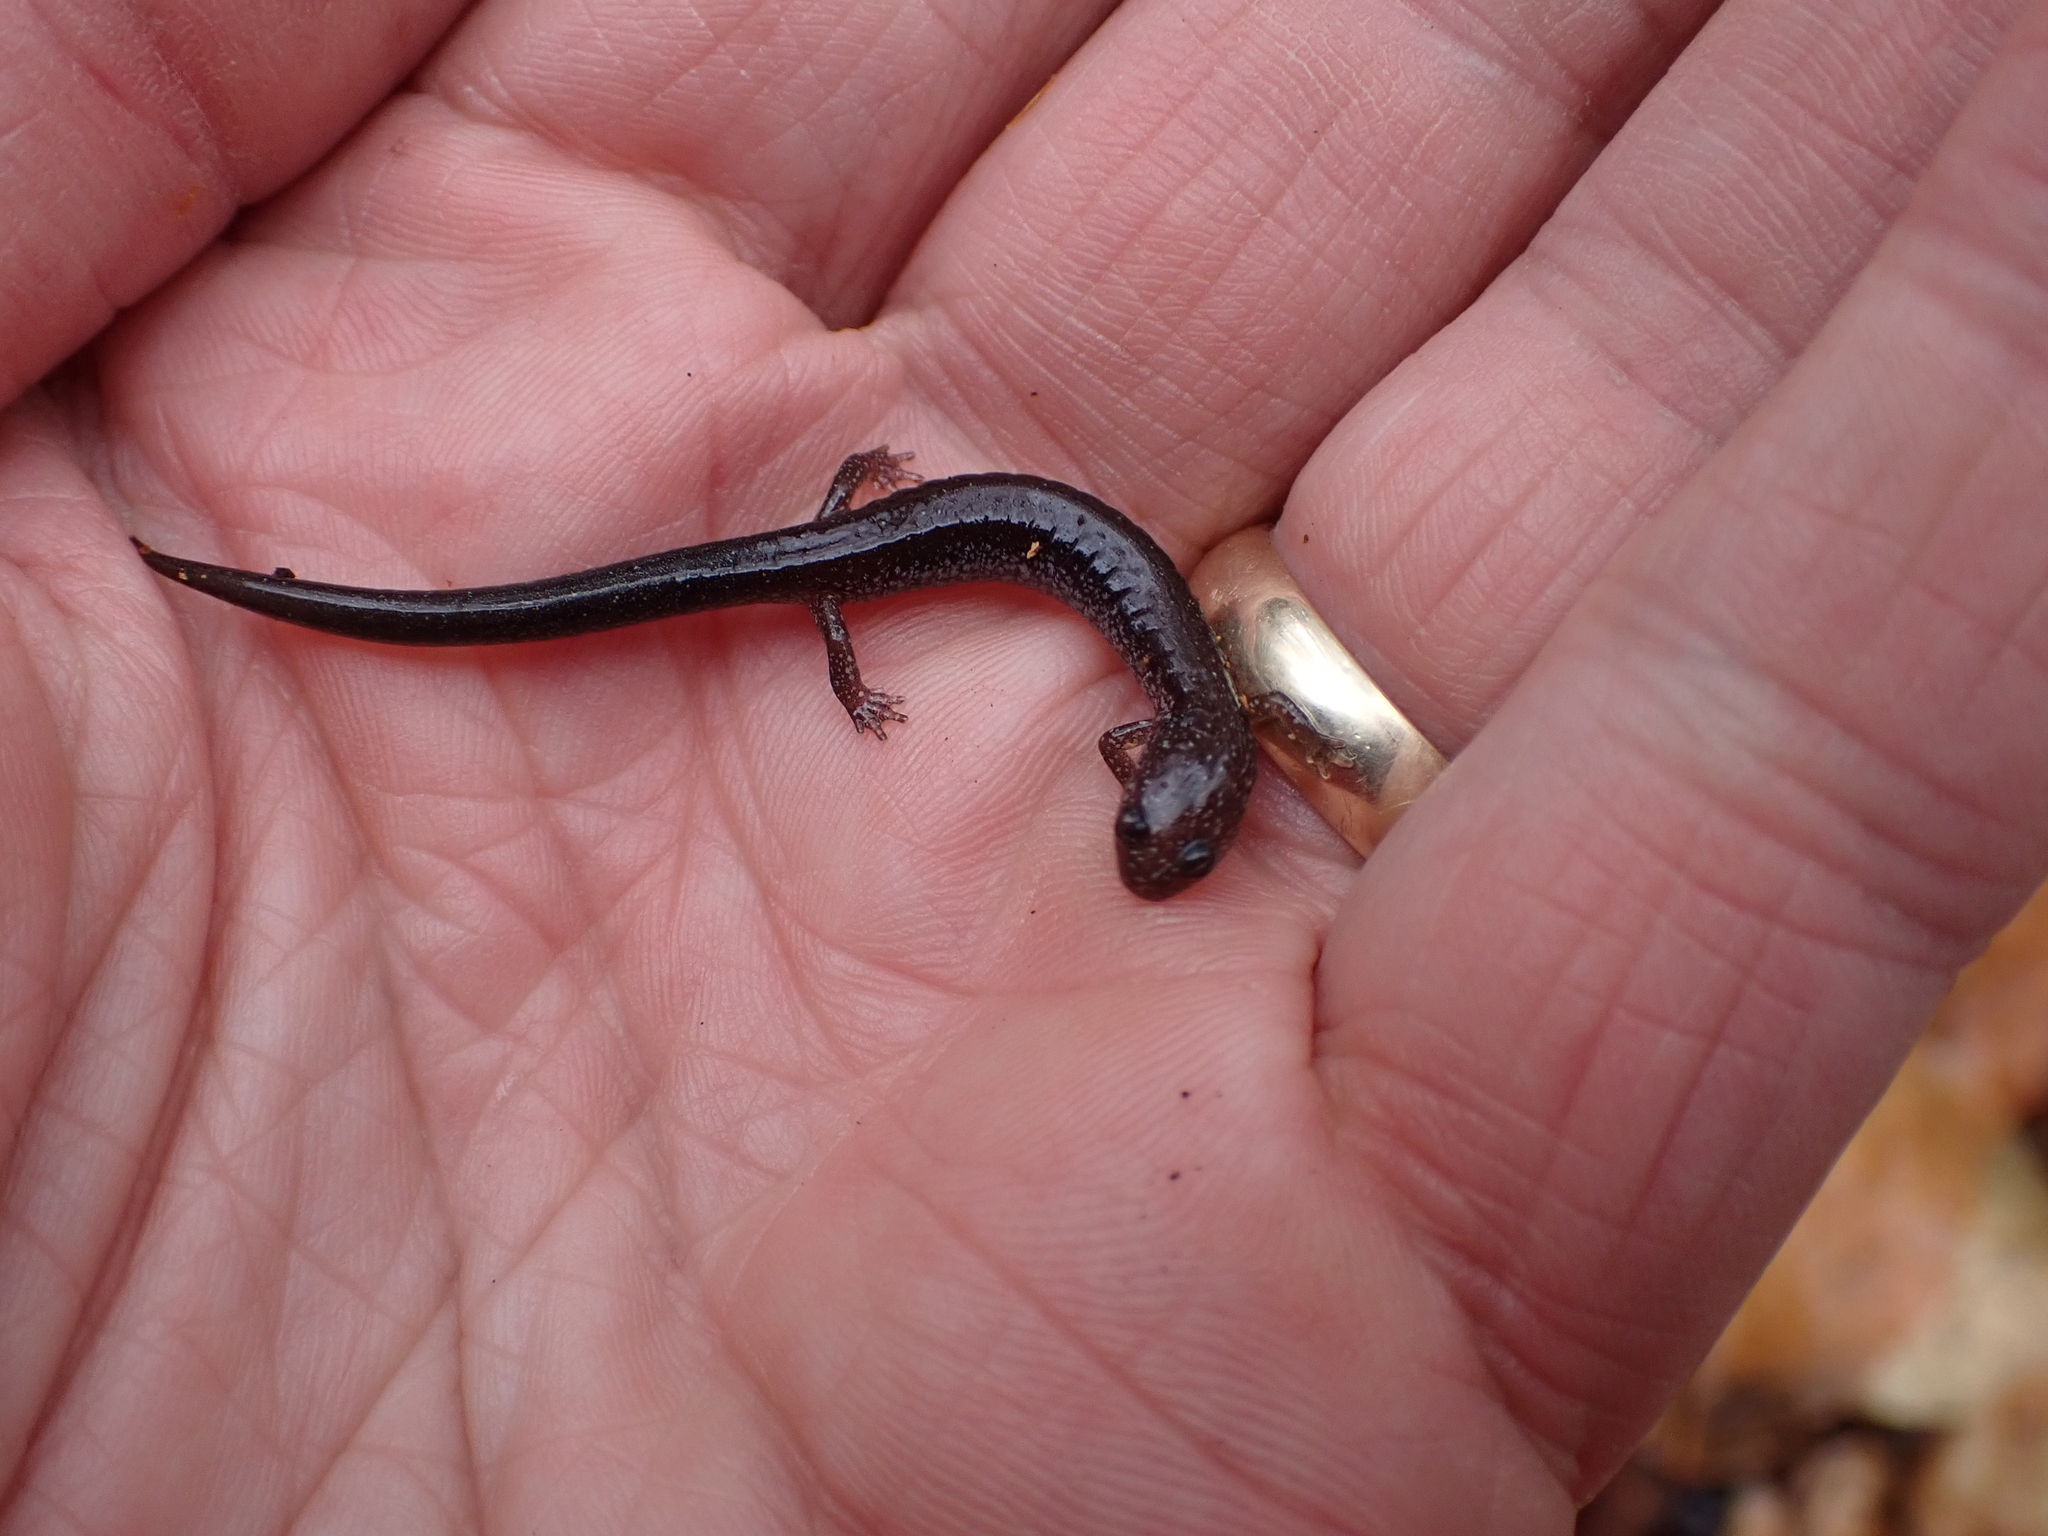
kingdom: Animalia
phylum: Chordata
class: Amphibia
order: Caudata
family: Plethodontidae
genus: Plethodon
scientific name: Plethodon cinereus
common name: Redback salamander
